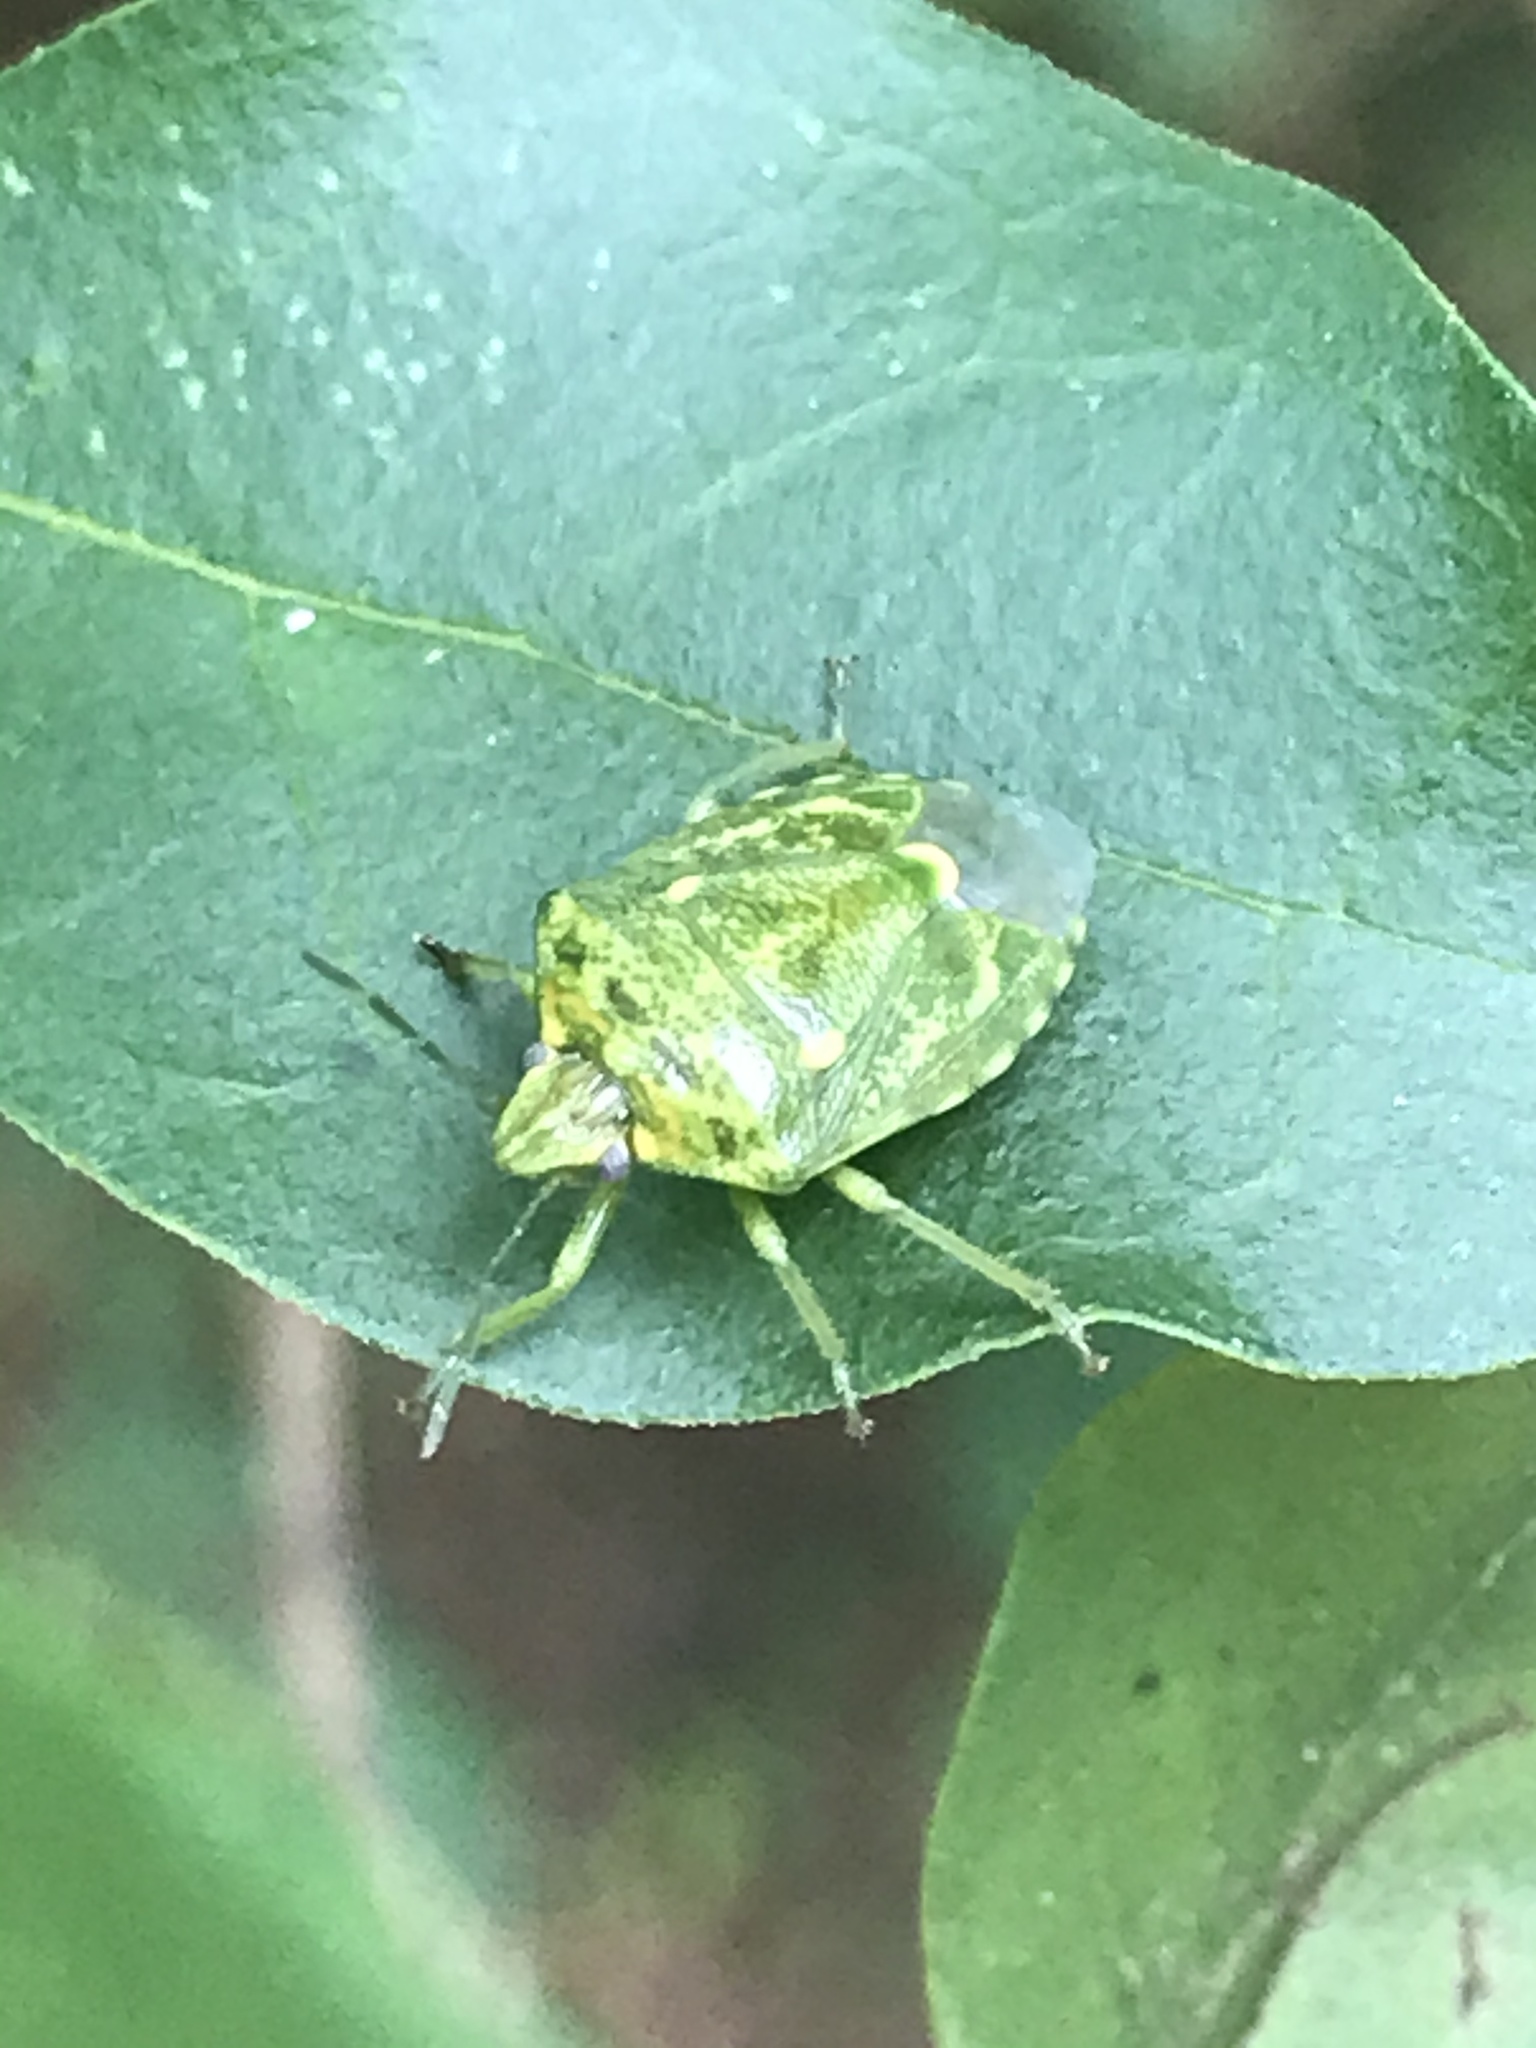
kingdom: Animalia
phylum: Arthropoda
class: Insecta
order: Hemiptera
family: Pentatomidae
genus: Banasa
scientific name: Banasa euchlora
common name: Cedar berry bug
